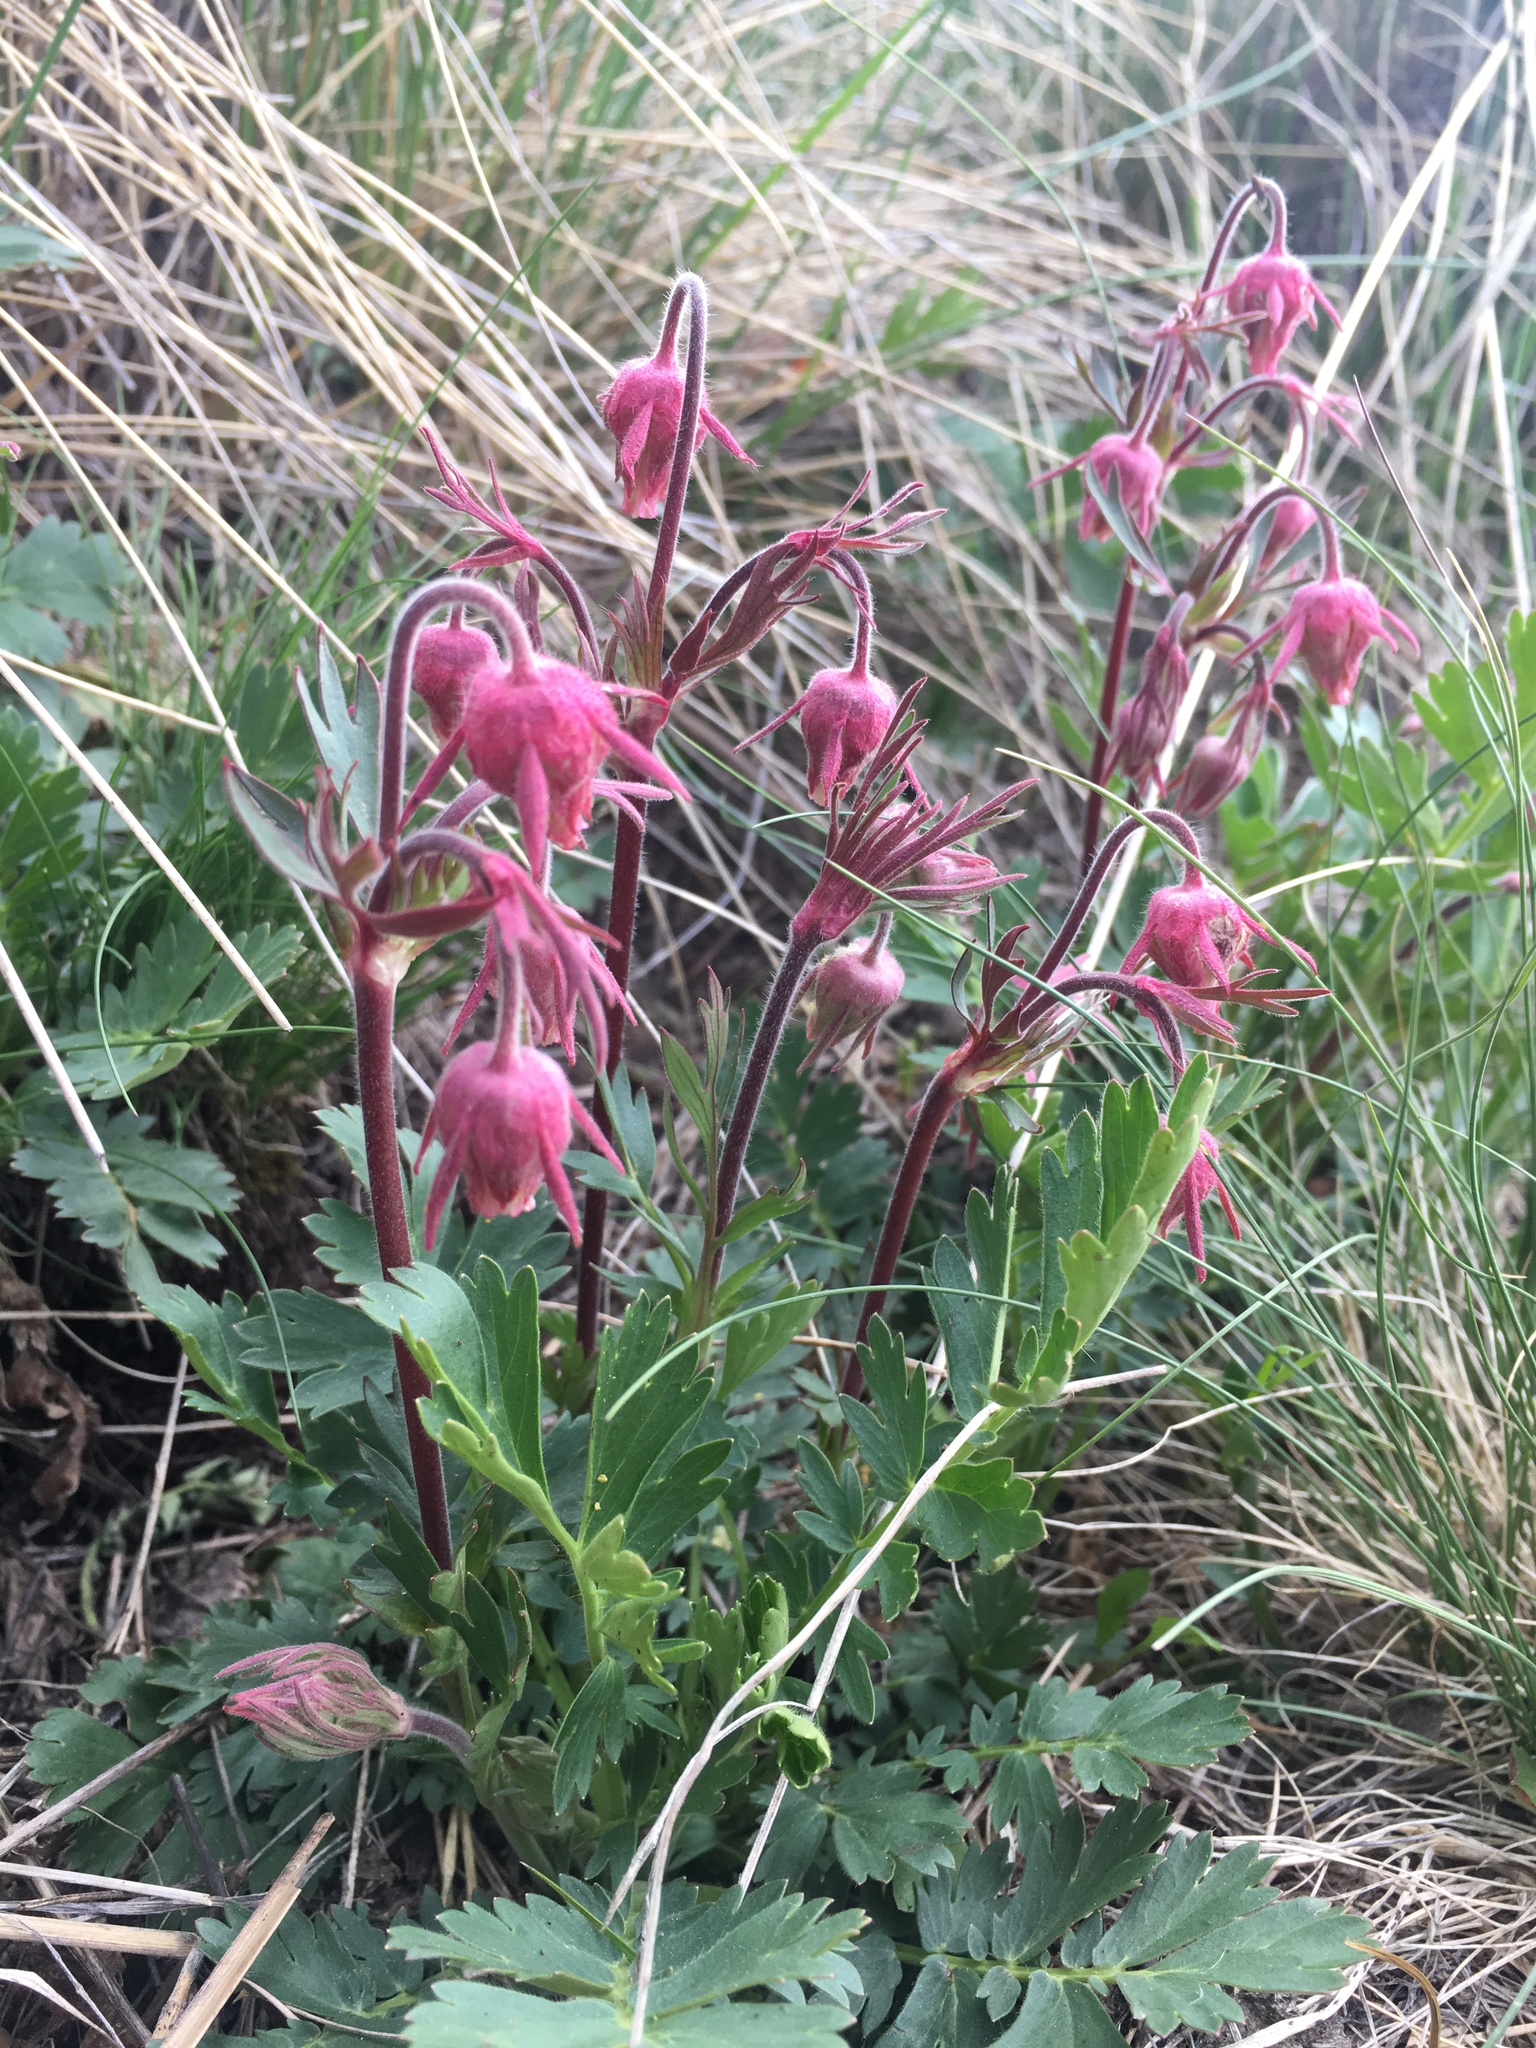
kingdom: Plantae
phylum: Tracheophyta
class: Magnoliopsida
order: Rosales
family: Rosaceae
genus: Geum
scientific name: Geum triflorum
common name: Old man's whiskers
